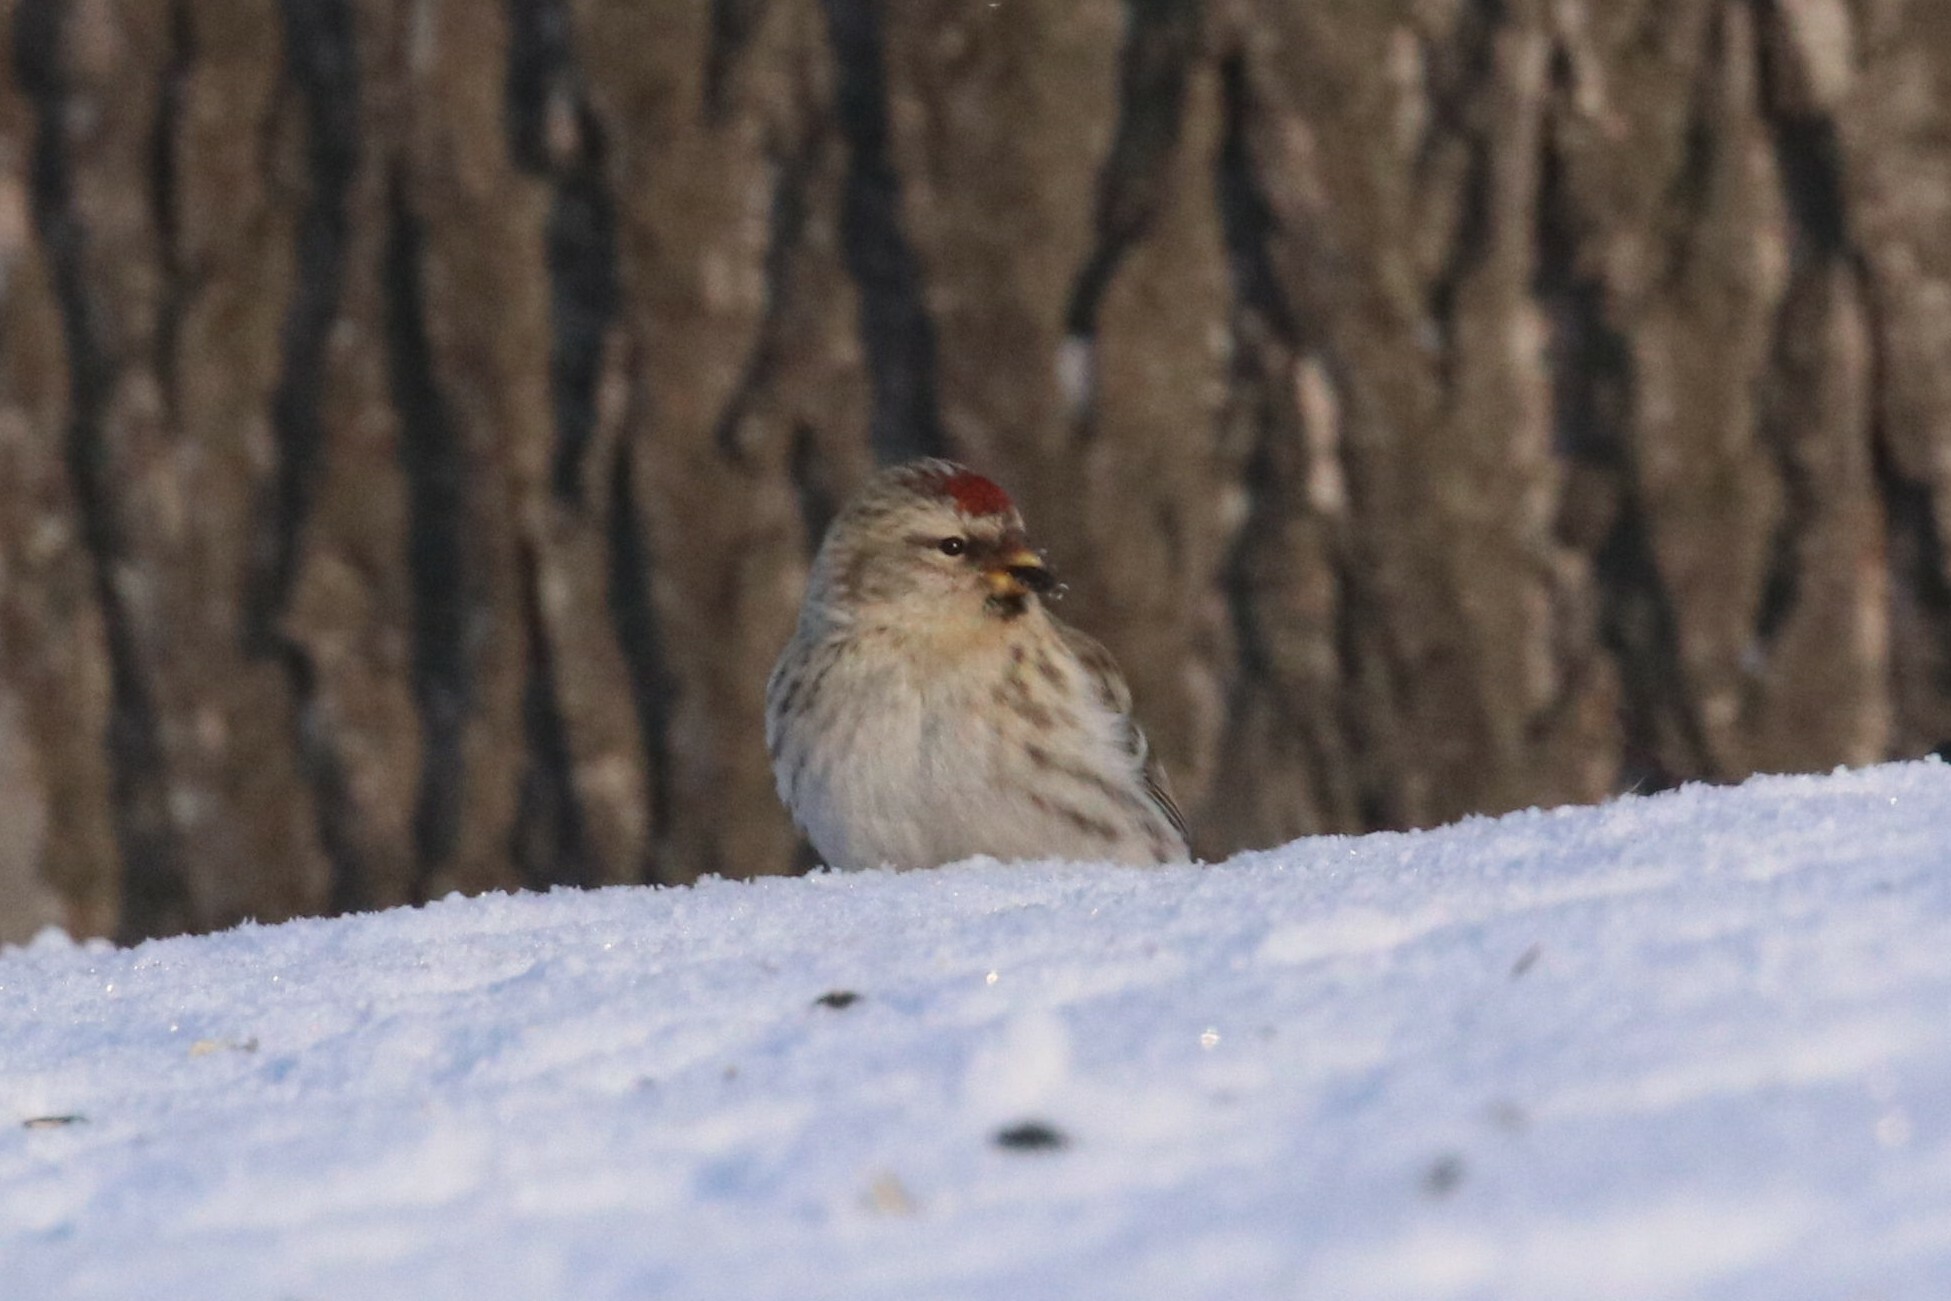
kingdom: Animalia
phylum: Chordata
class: Aves
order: Passeriformes
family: Fringillidae
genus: Acanthis
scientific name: Acanthis flammea
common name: Common redpoll
